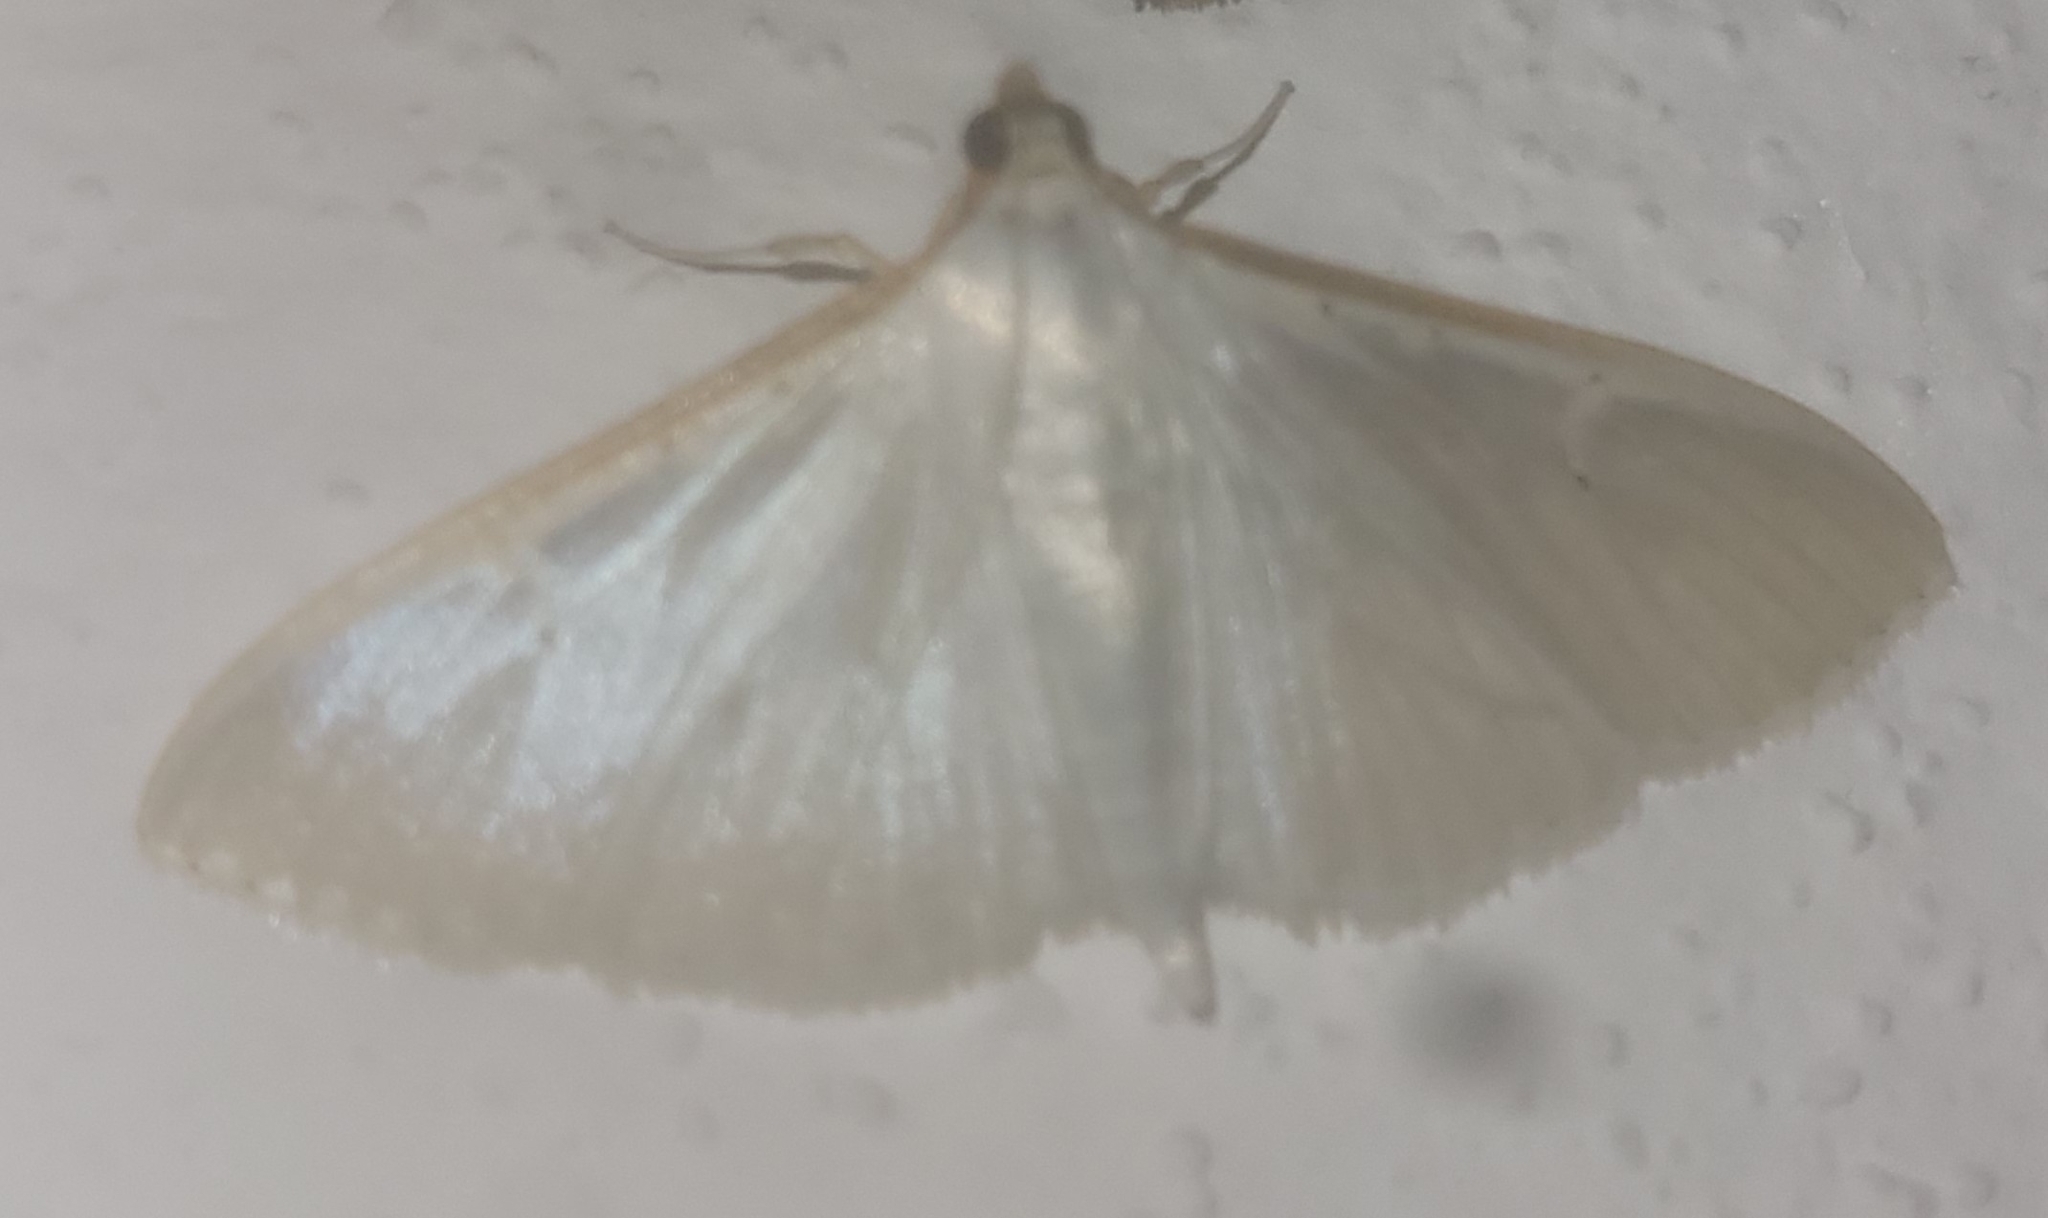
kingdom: Animalia
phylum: Arthropoda
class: Insecta
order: Lepidoptera
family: Crambidae
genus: Palpita
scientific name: Palpita vitrealis
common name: Olive-tree pearl
